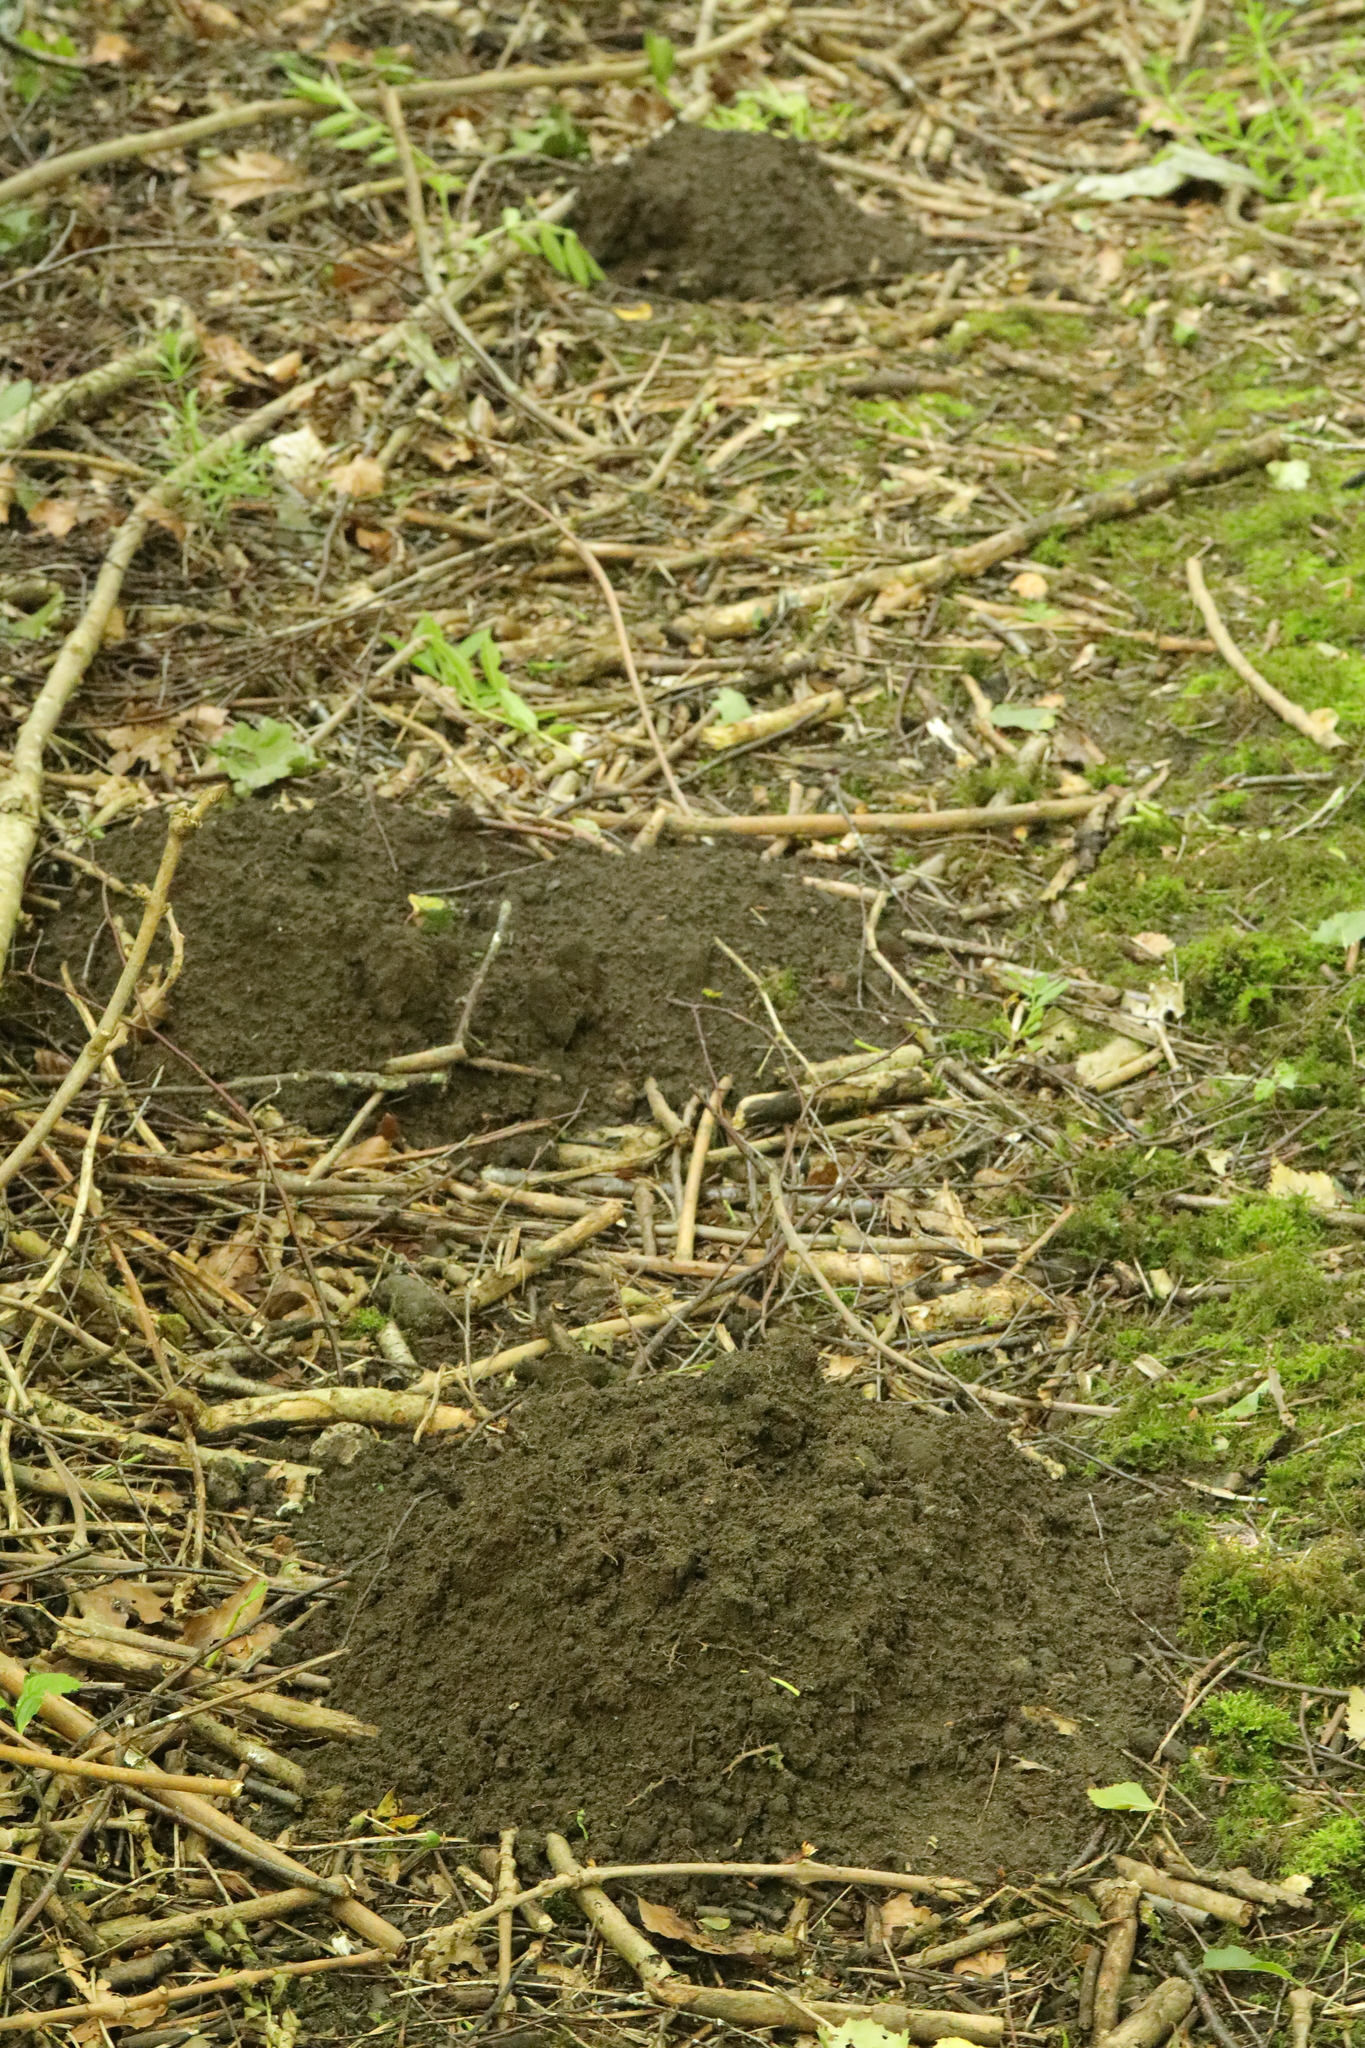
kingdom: Animalia
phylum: Chordata
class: Mammalia
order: Soricomorpha
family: Talpidae
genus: Talpa
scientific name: Talpa europaea
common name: European mole
